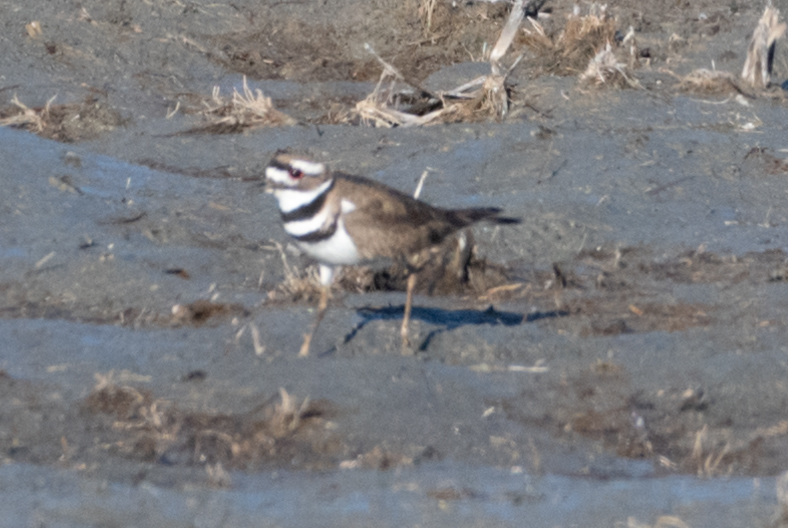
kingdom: Animalia
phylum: Chordata
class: Aves
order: Charadriiformes
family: Charadriidae
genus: Charadrius
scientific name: Charadrius vociferus
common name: Killdeer
